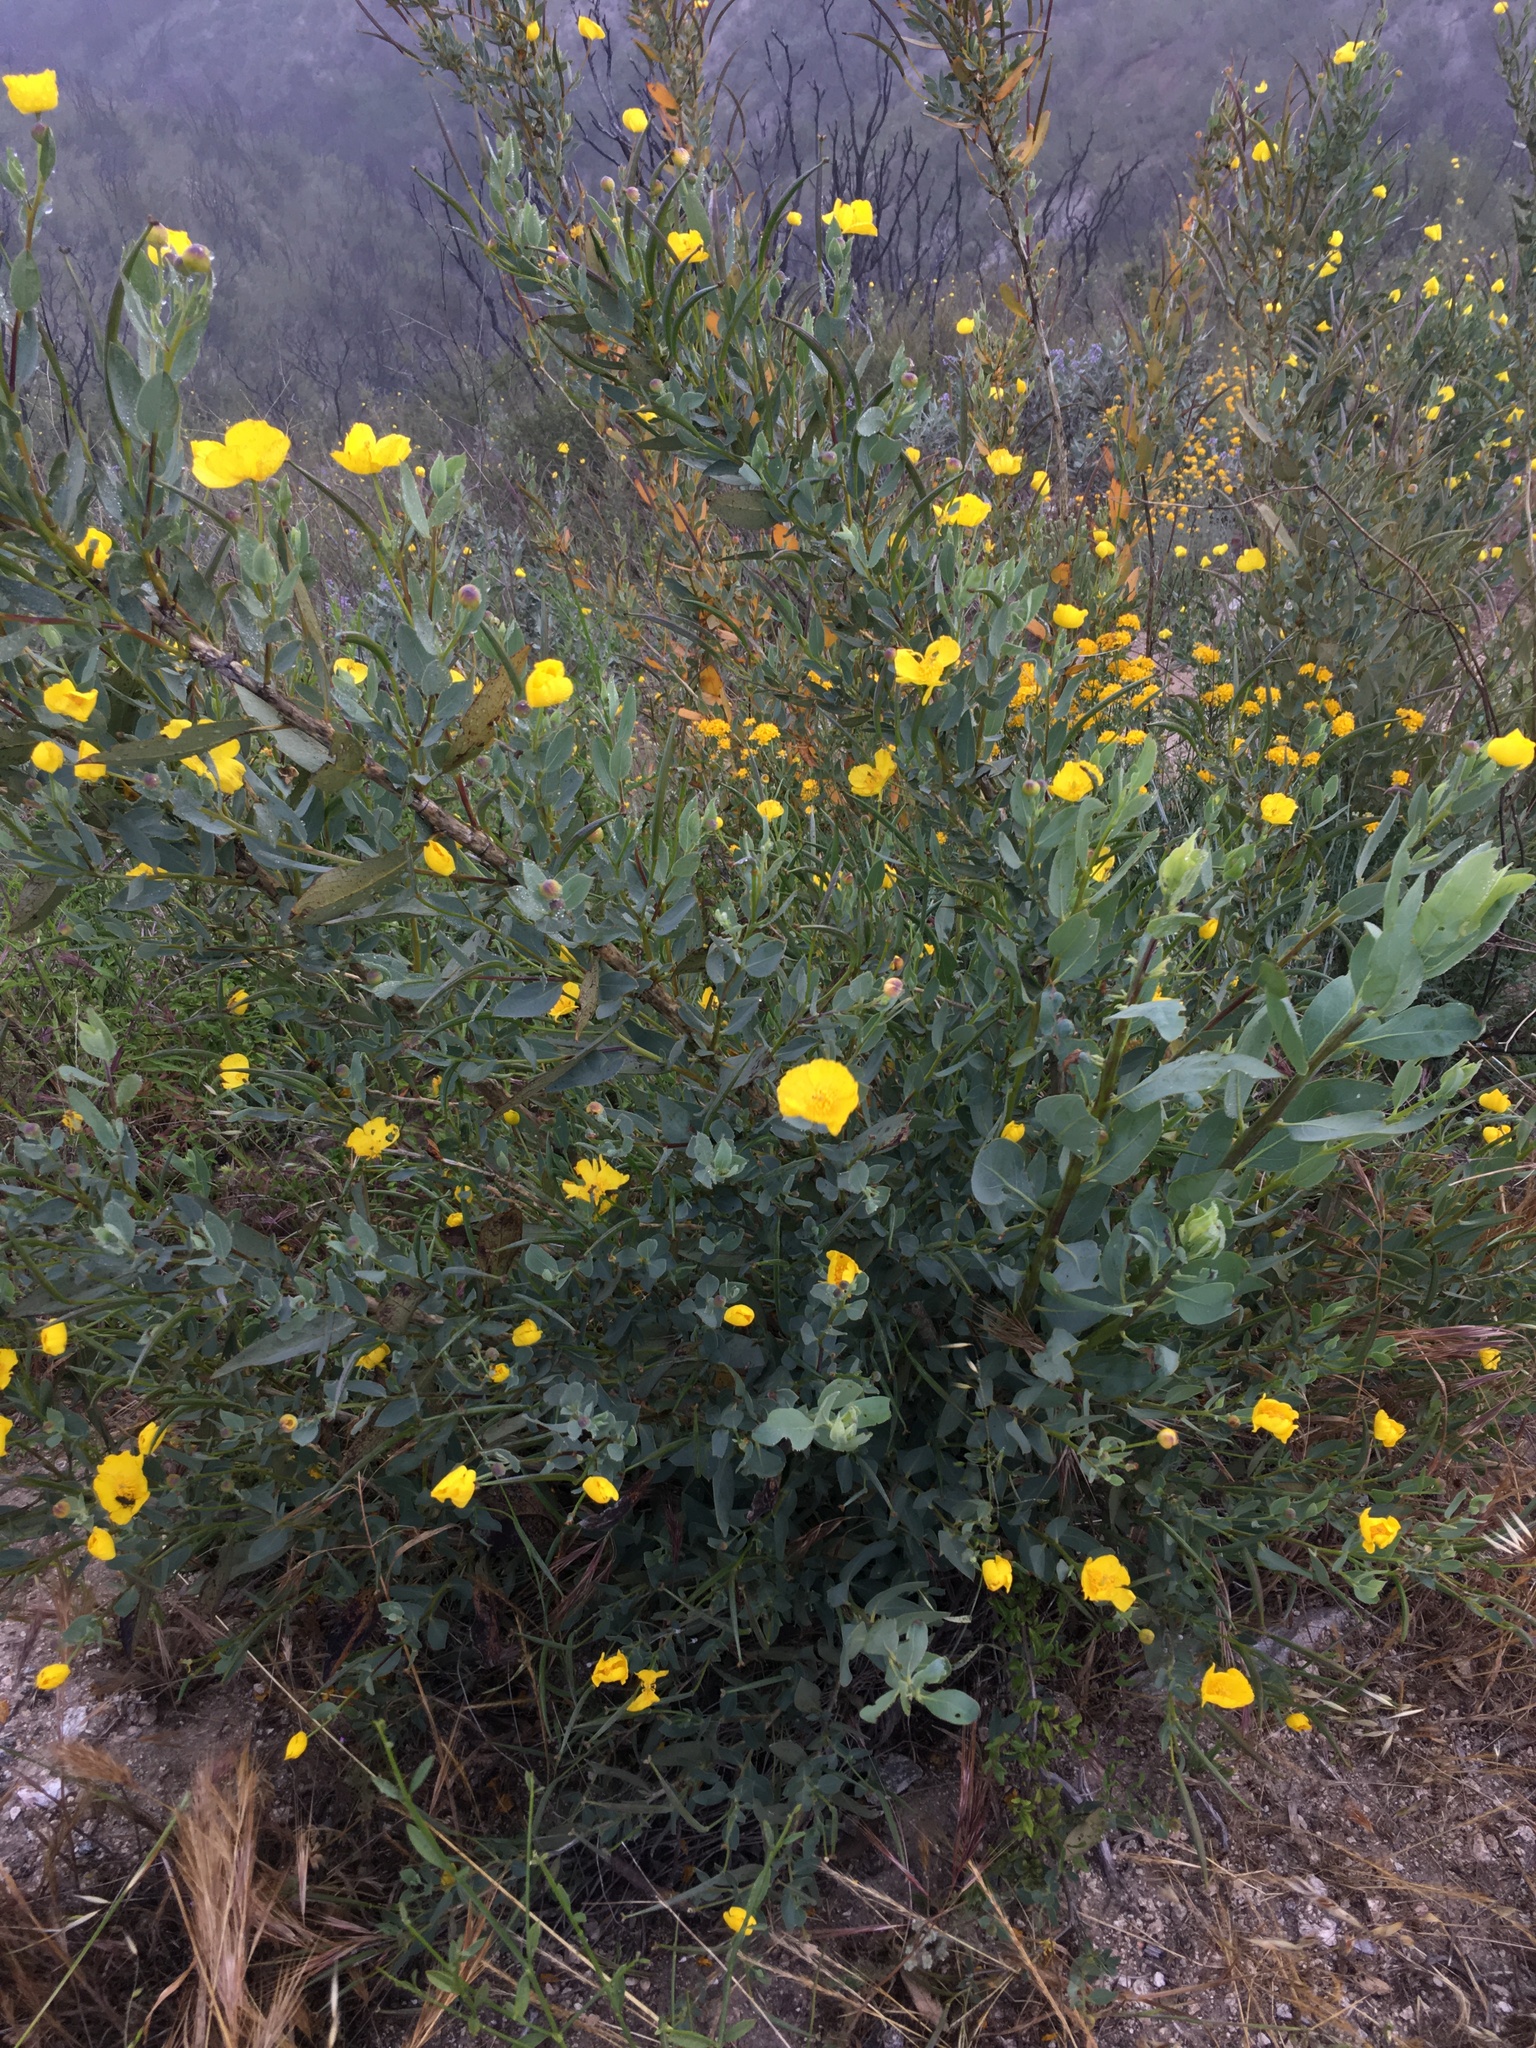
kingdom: Plantae
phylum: Tracheophyta
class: Magnoliopsida
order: Ranunculales
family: Papaveraceae
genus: Dendromecon
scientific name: Dendromecon rigida
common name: Tree poppy
